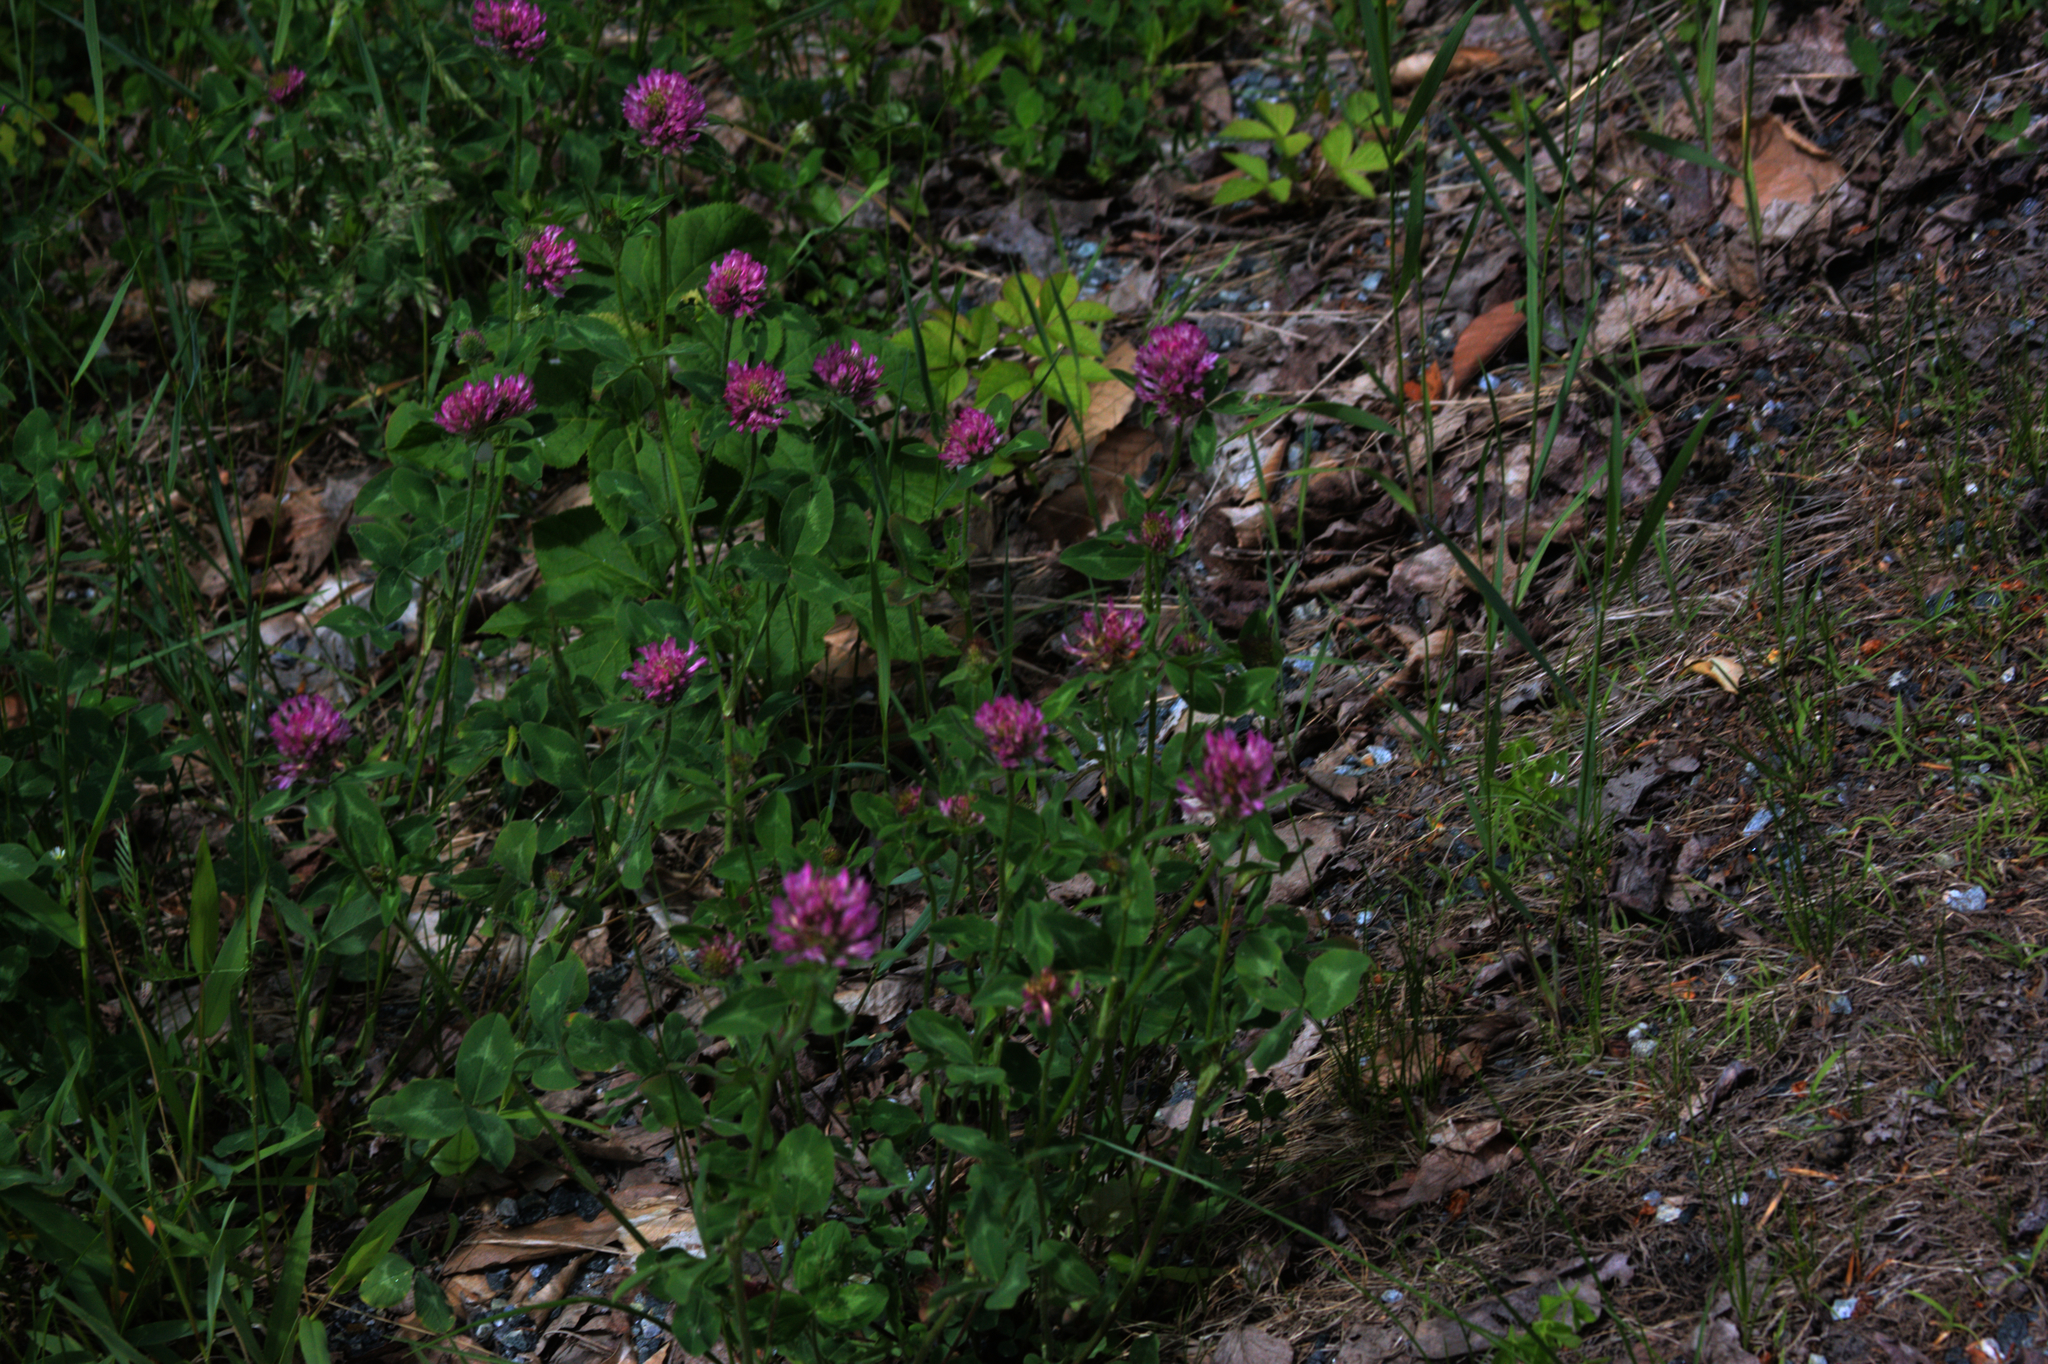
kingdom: Plantae
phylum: Tracheophyta
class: Magnoliopsida
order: Fabales
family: Fabaceae
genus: Trifolium
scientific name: Trifolium pratense
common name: Red clover
